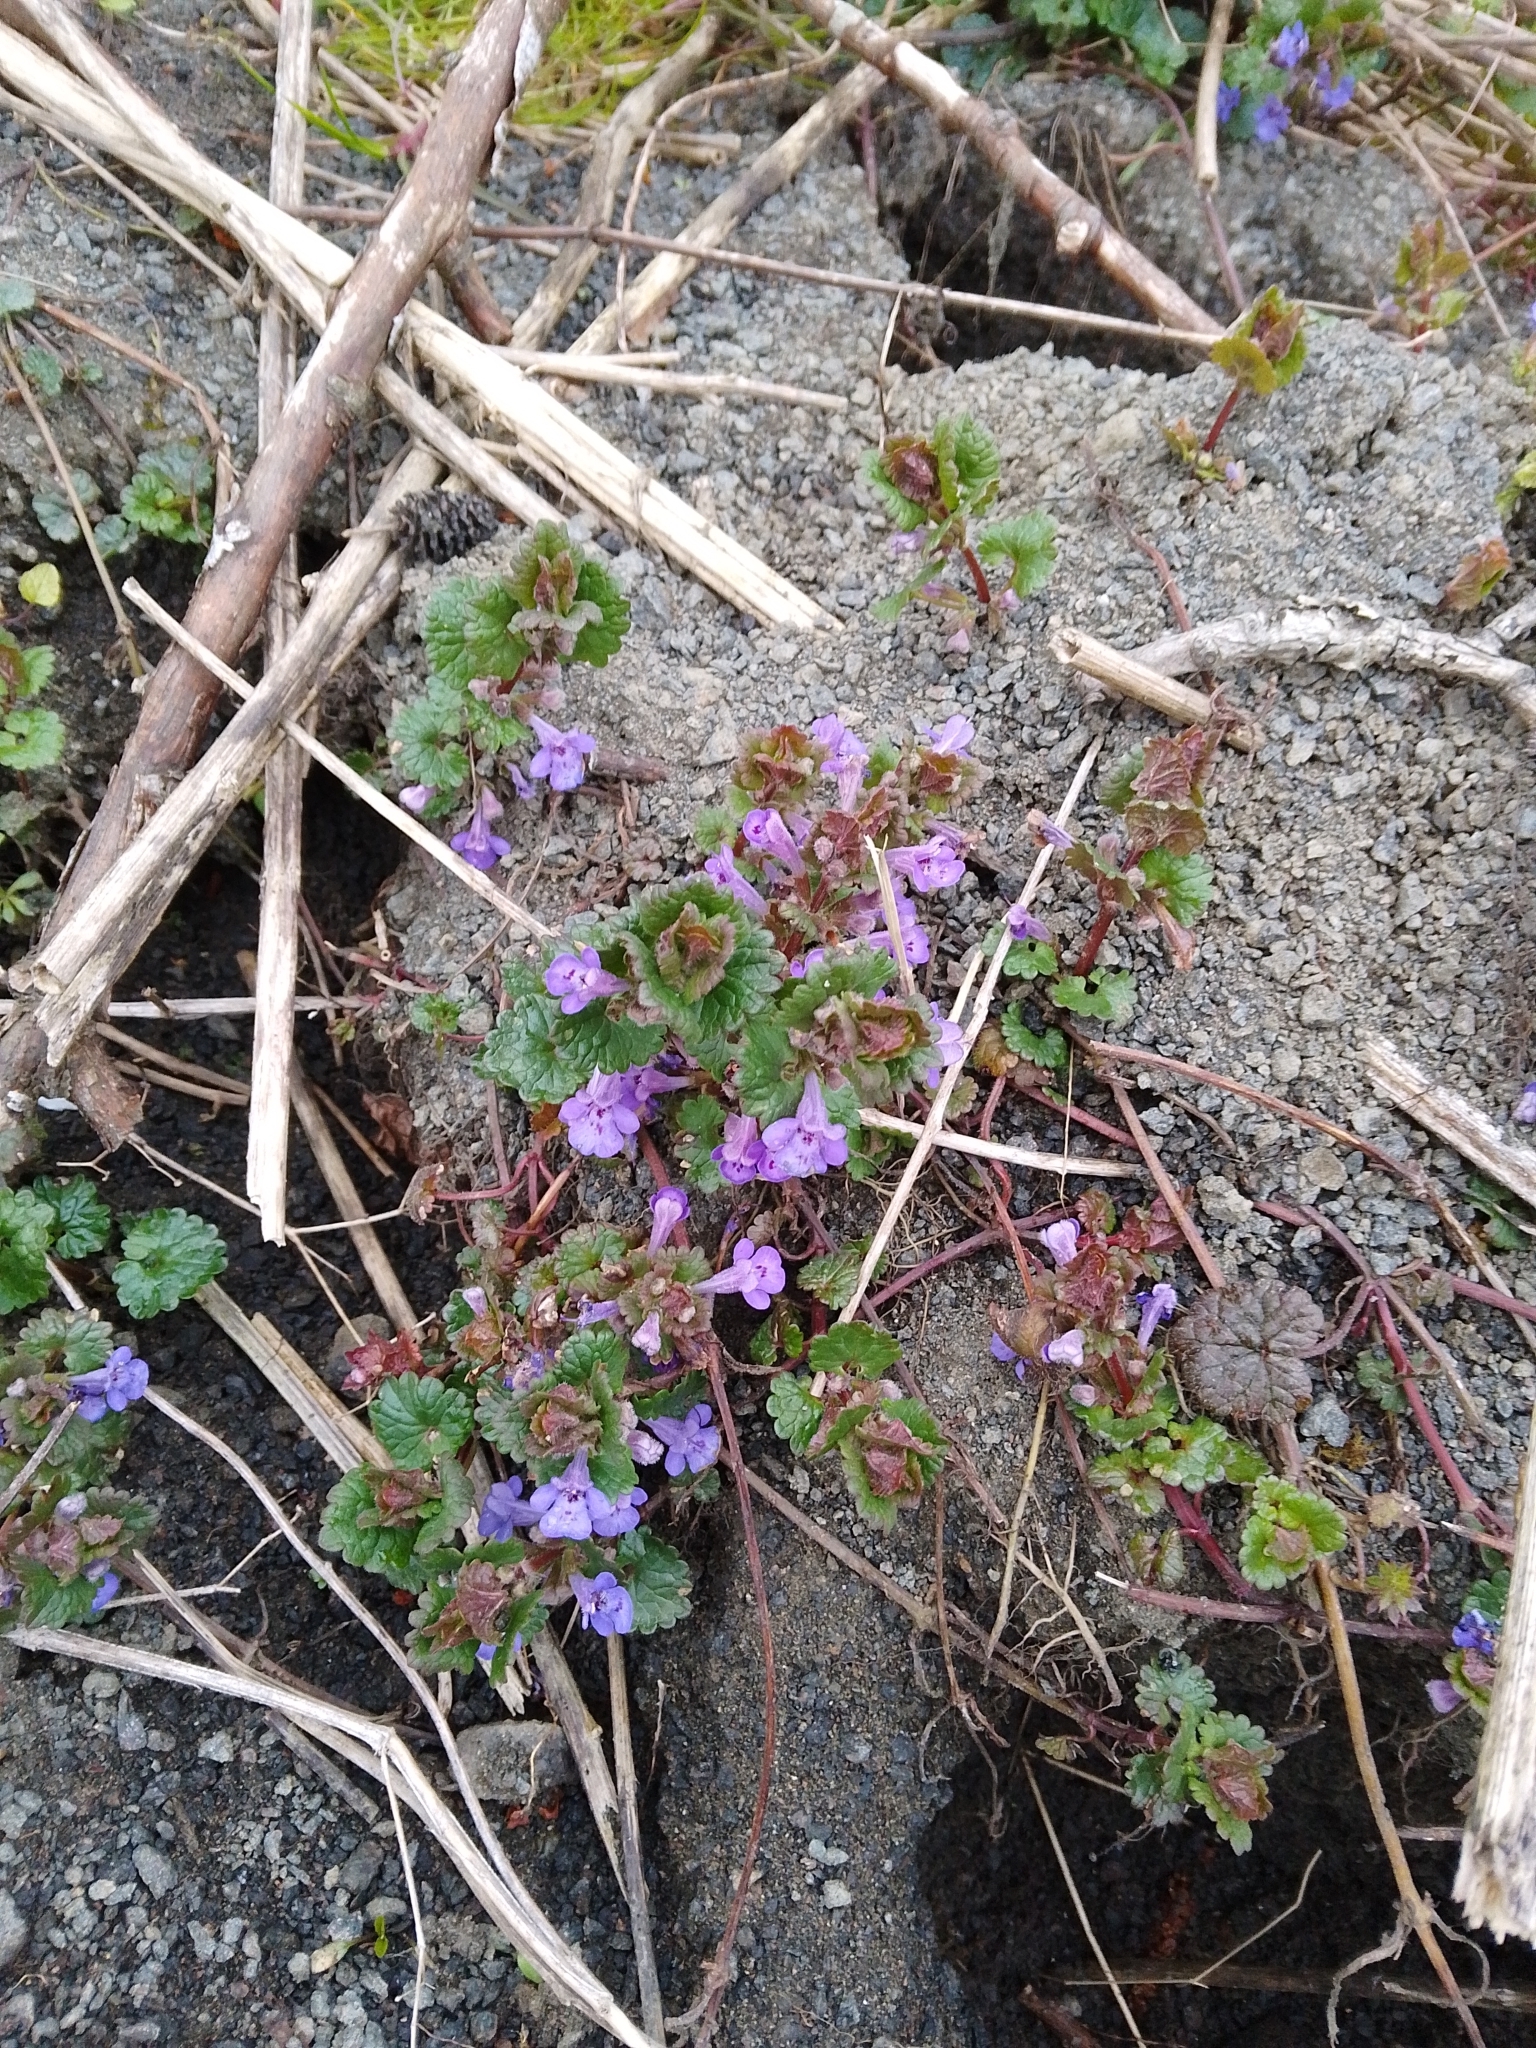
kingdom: Plantae
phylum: Tracheophyta
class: Magnoliopsida
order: Lamiales
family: Lamiaceae
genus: Glechoma
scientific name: Glechoma hederacea
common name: Ground ivy
